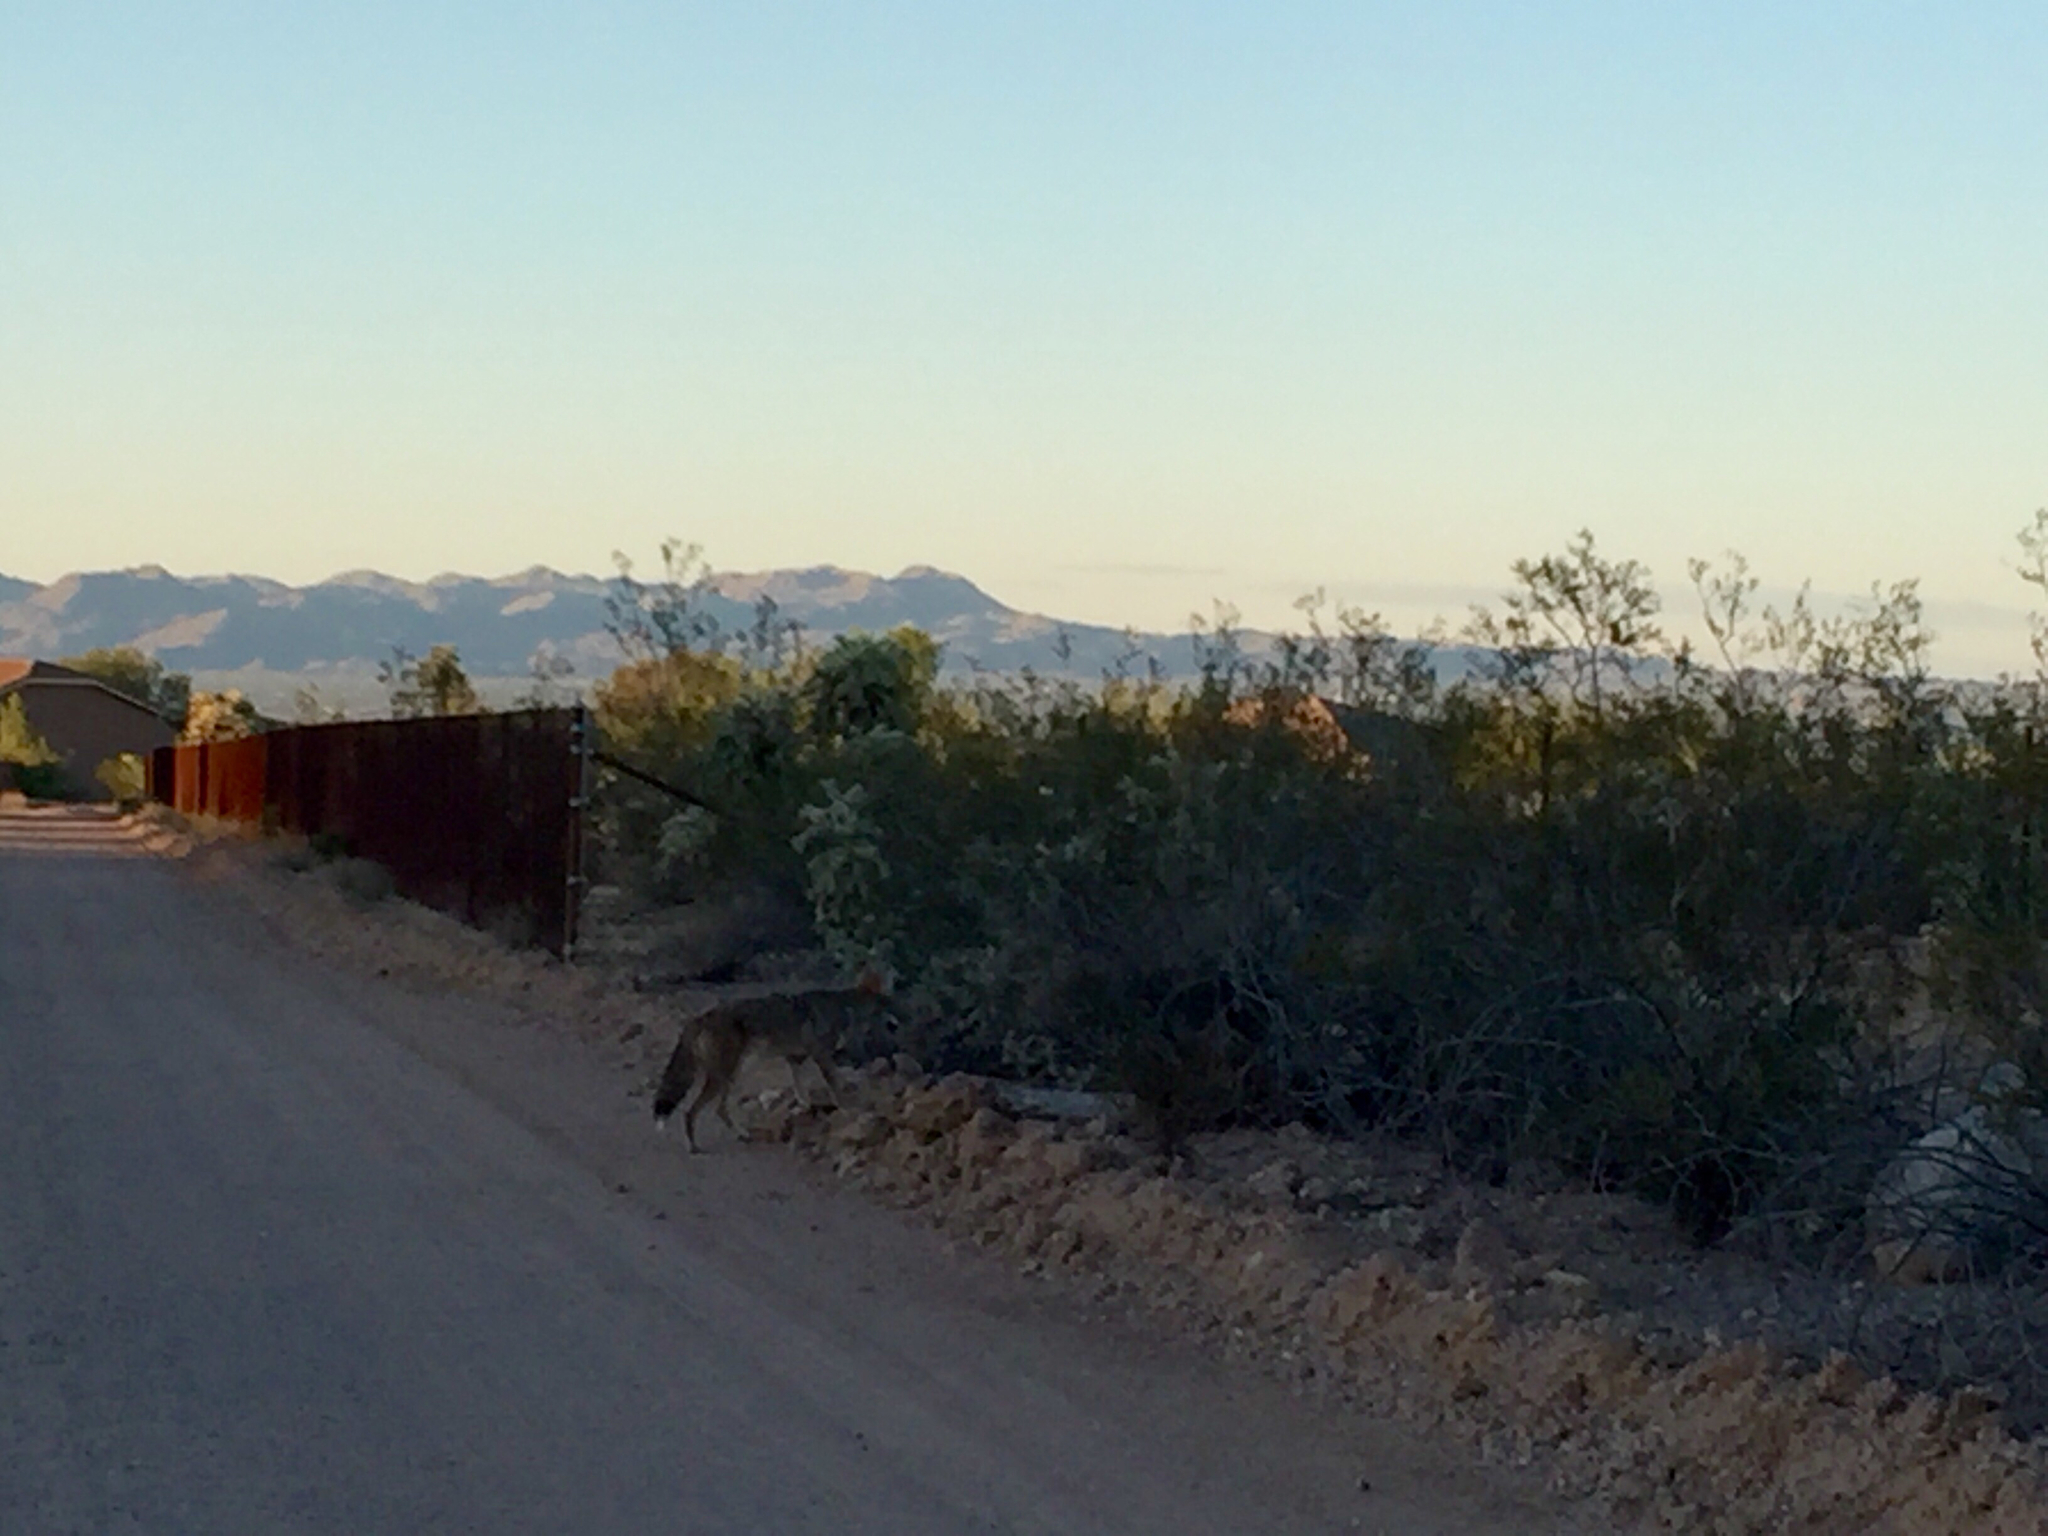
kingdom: Animalia
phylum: Chordata
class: Mammalia
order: Carnivora
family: Canidae
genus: Canis
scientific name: Canis latrans
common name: Coyote
